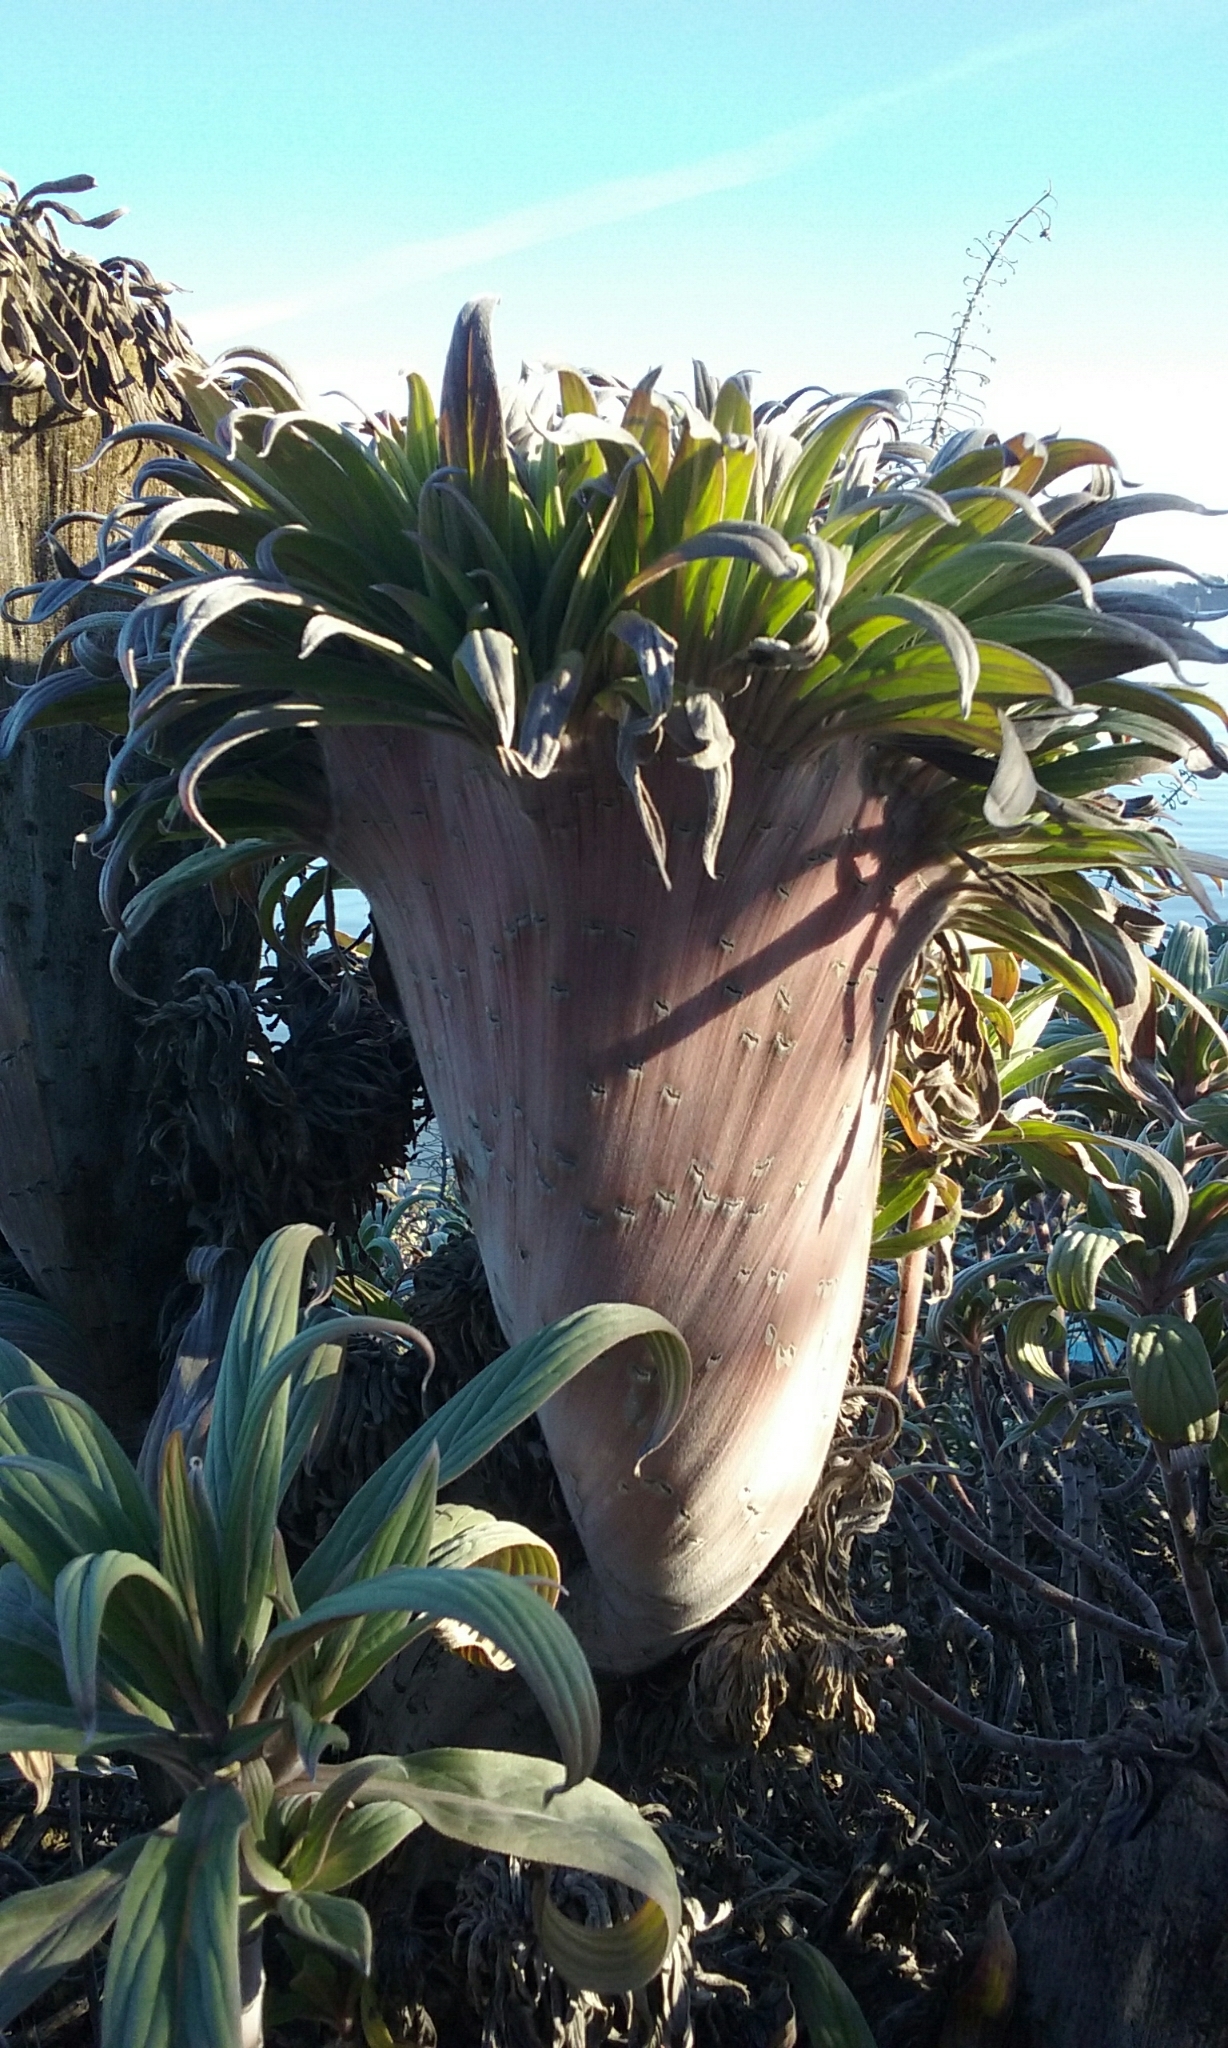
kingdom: Plantae
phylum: Tracheophyta
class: Magnoliopsida
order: Boraginales
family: Boraginaceae
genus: Echium
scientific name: Echium candicans
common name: Pride of madeira
